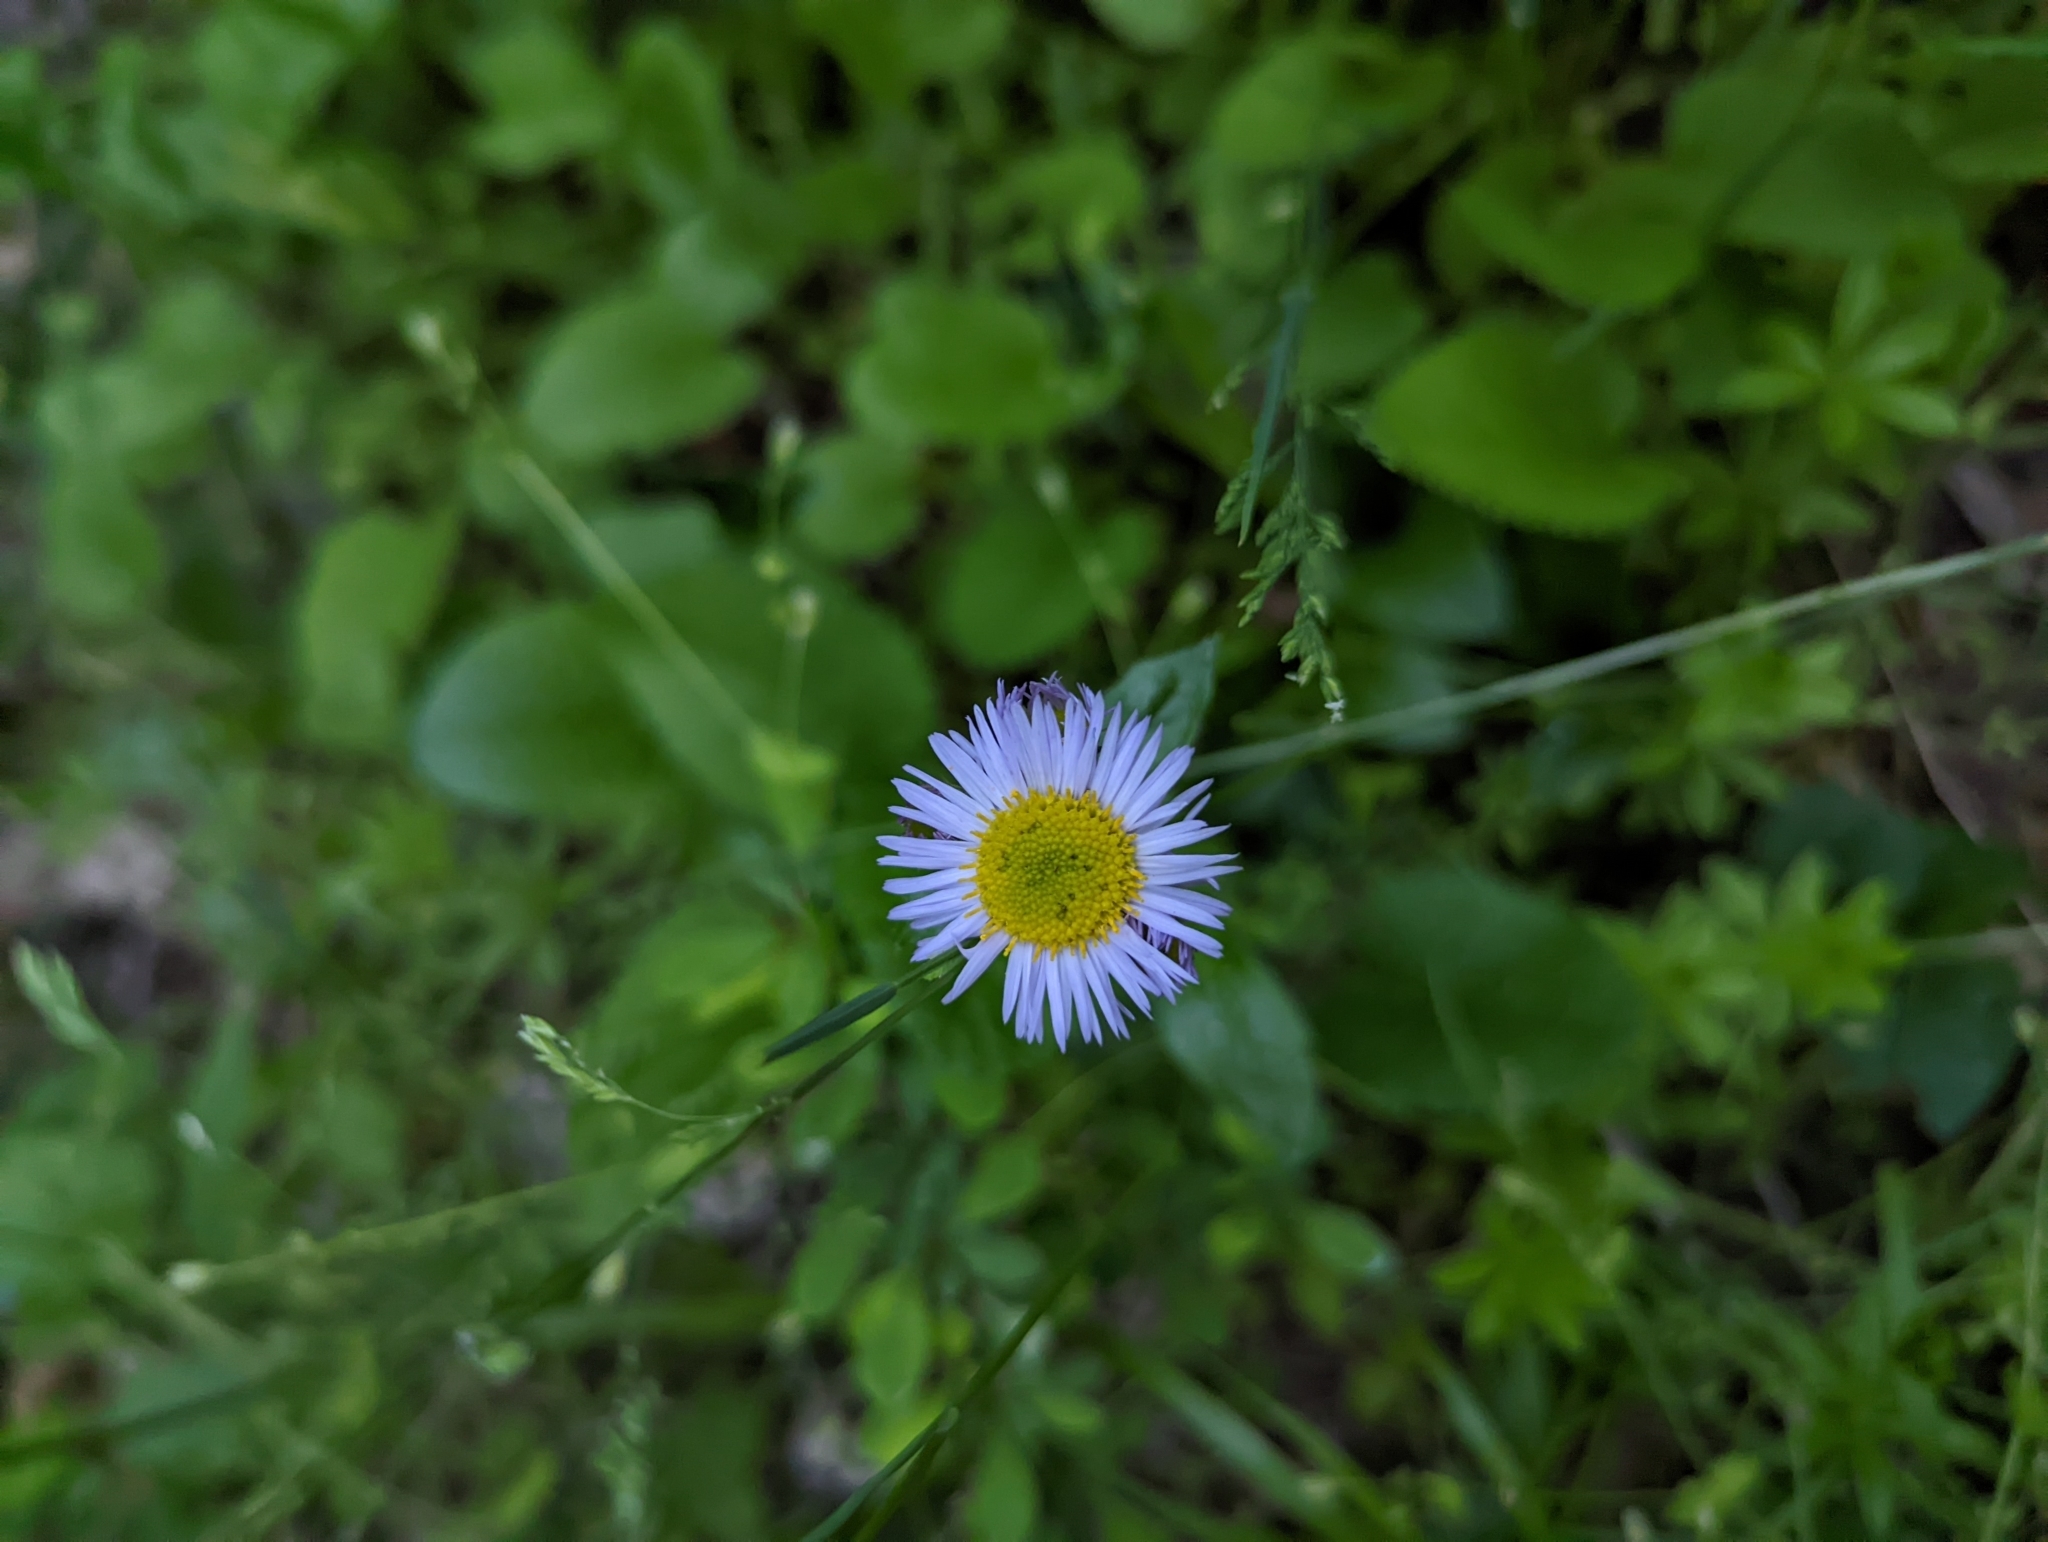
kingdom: Plantae
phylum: Tracheophyta
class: Magnoliopsida
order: Asterales
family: Asteraceae
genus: Erigeron
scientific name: Erigeron pulchellus
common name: Hairy fleabane
